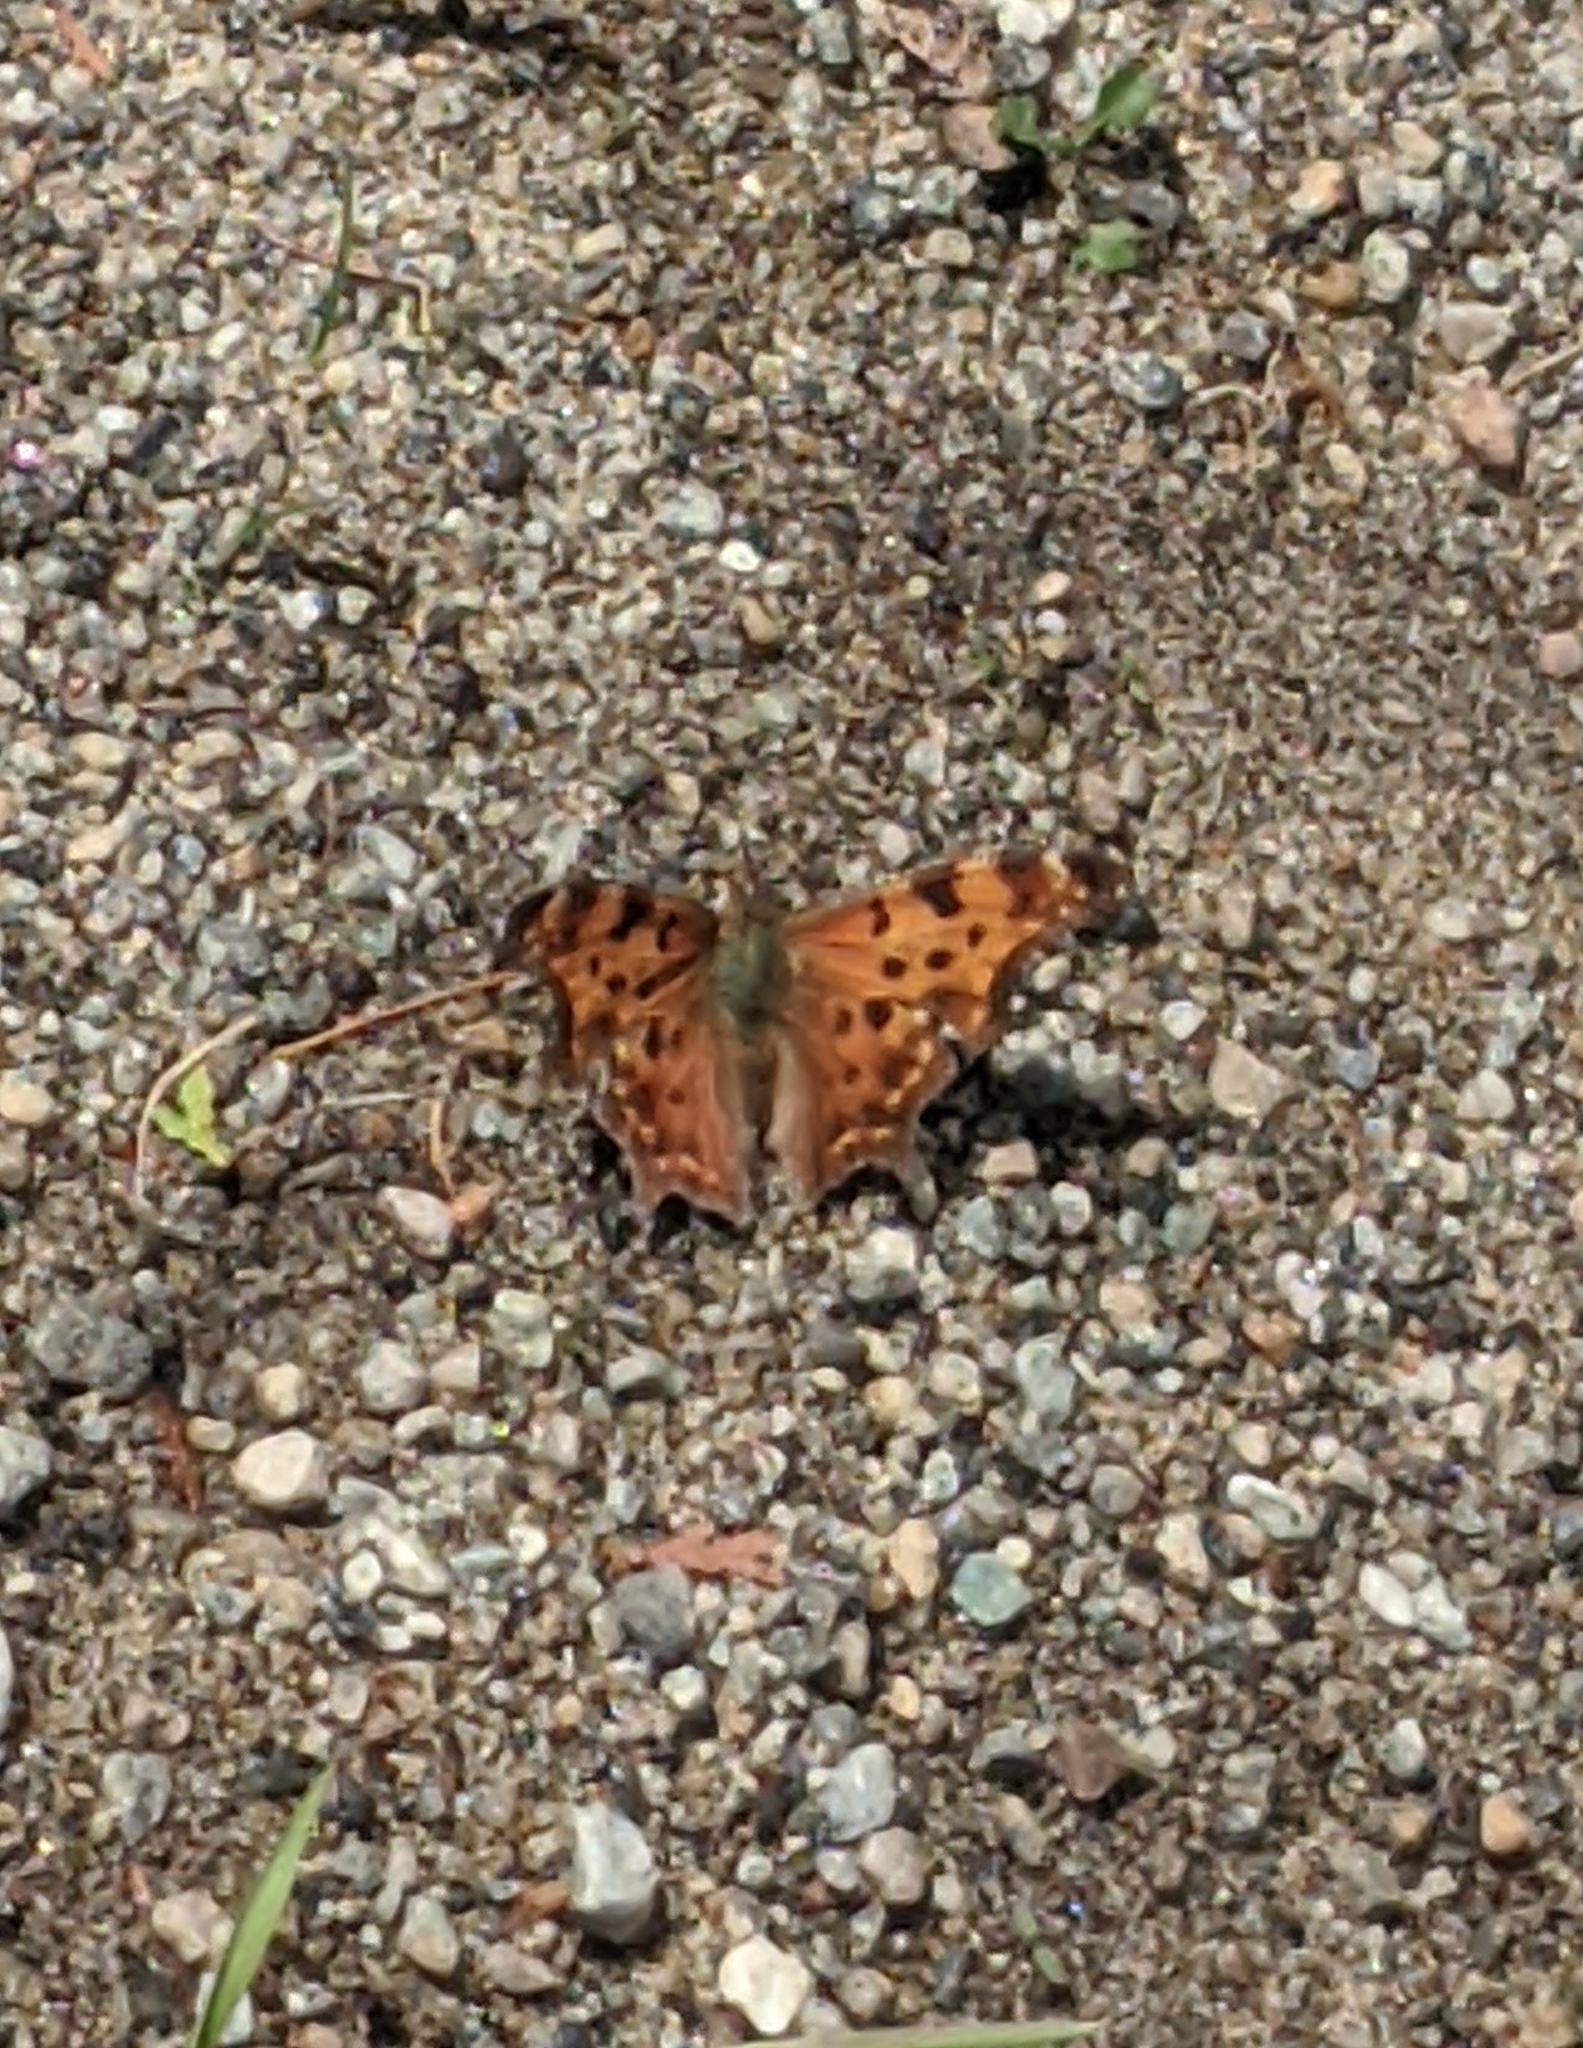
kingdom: Animalia
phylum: Arthropoda
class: Insecta
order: Lepidoptera
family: Nymphalidae
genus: Polygonia
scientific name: Polygonia faunus
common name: Green comma
